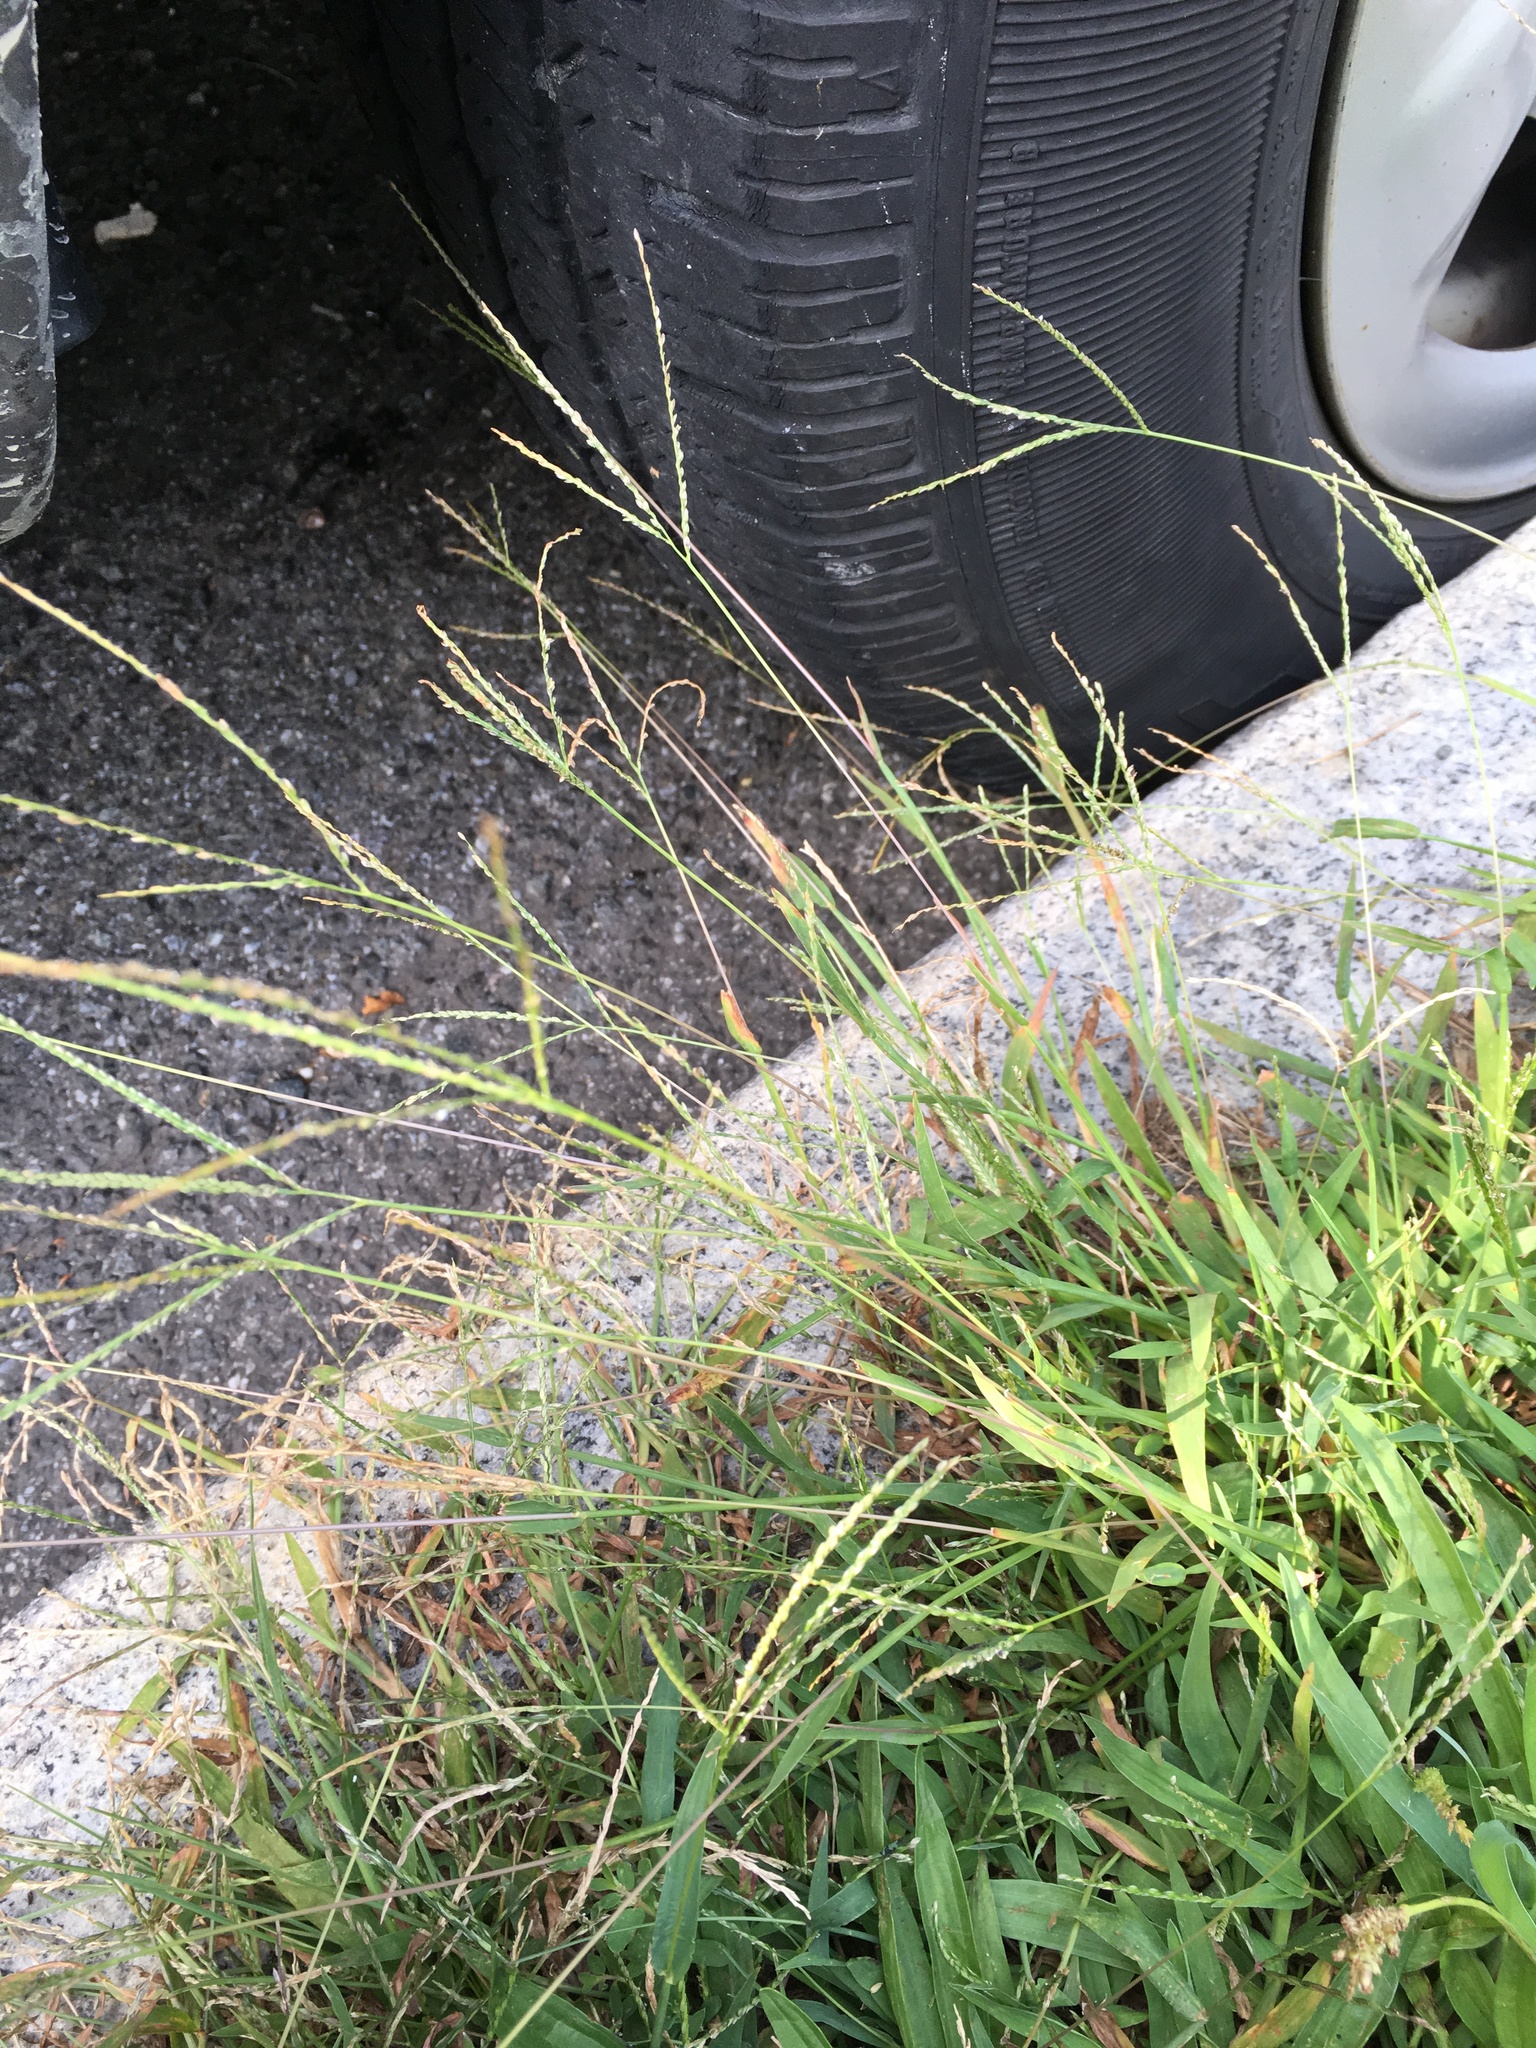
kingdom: Plantae
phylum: Tracheophyta
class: Liliopsida
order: Poales
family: Poaceae
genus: Digitaria
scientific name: Digitaria ischaemum
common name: Smooth crabgrass
